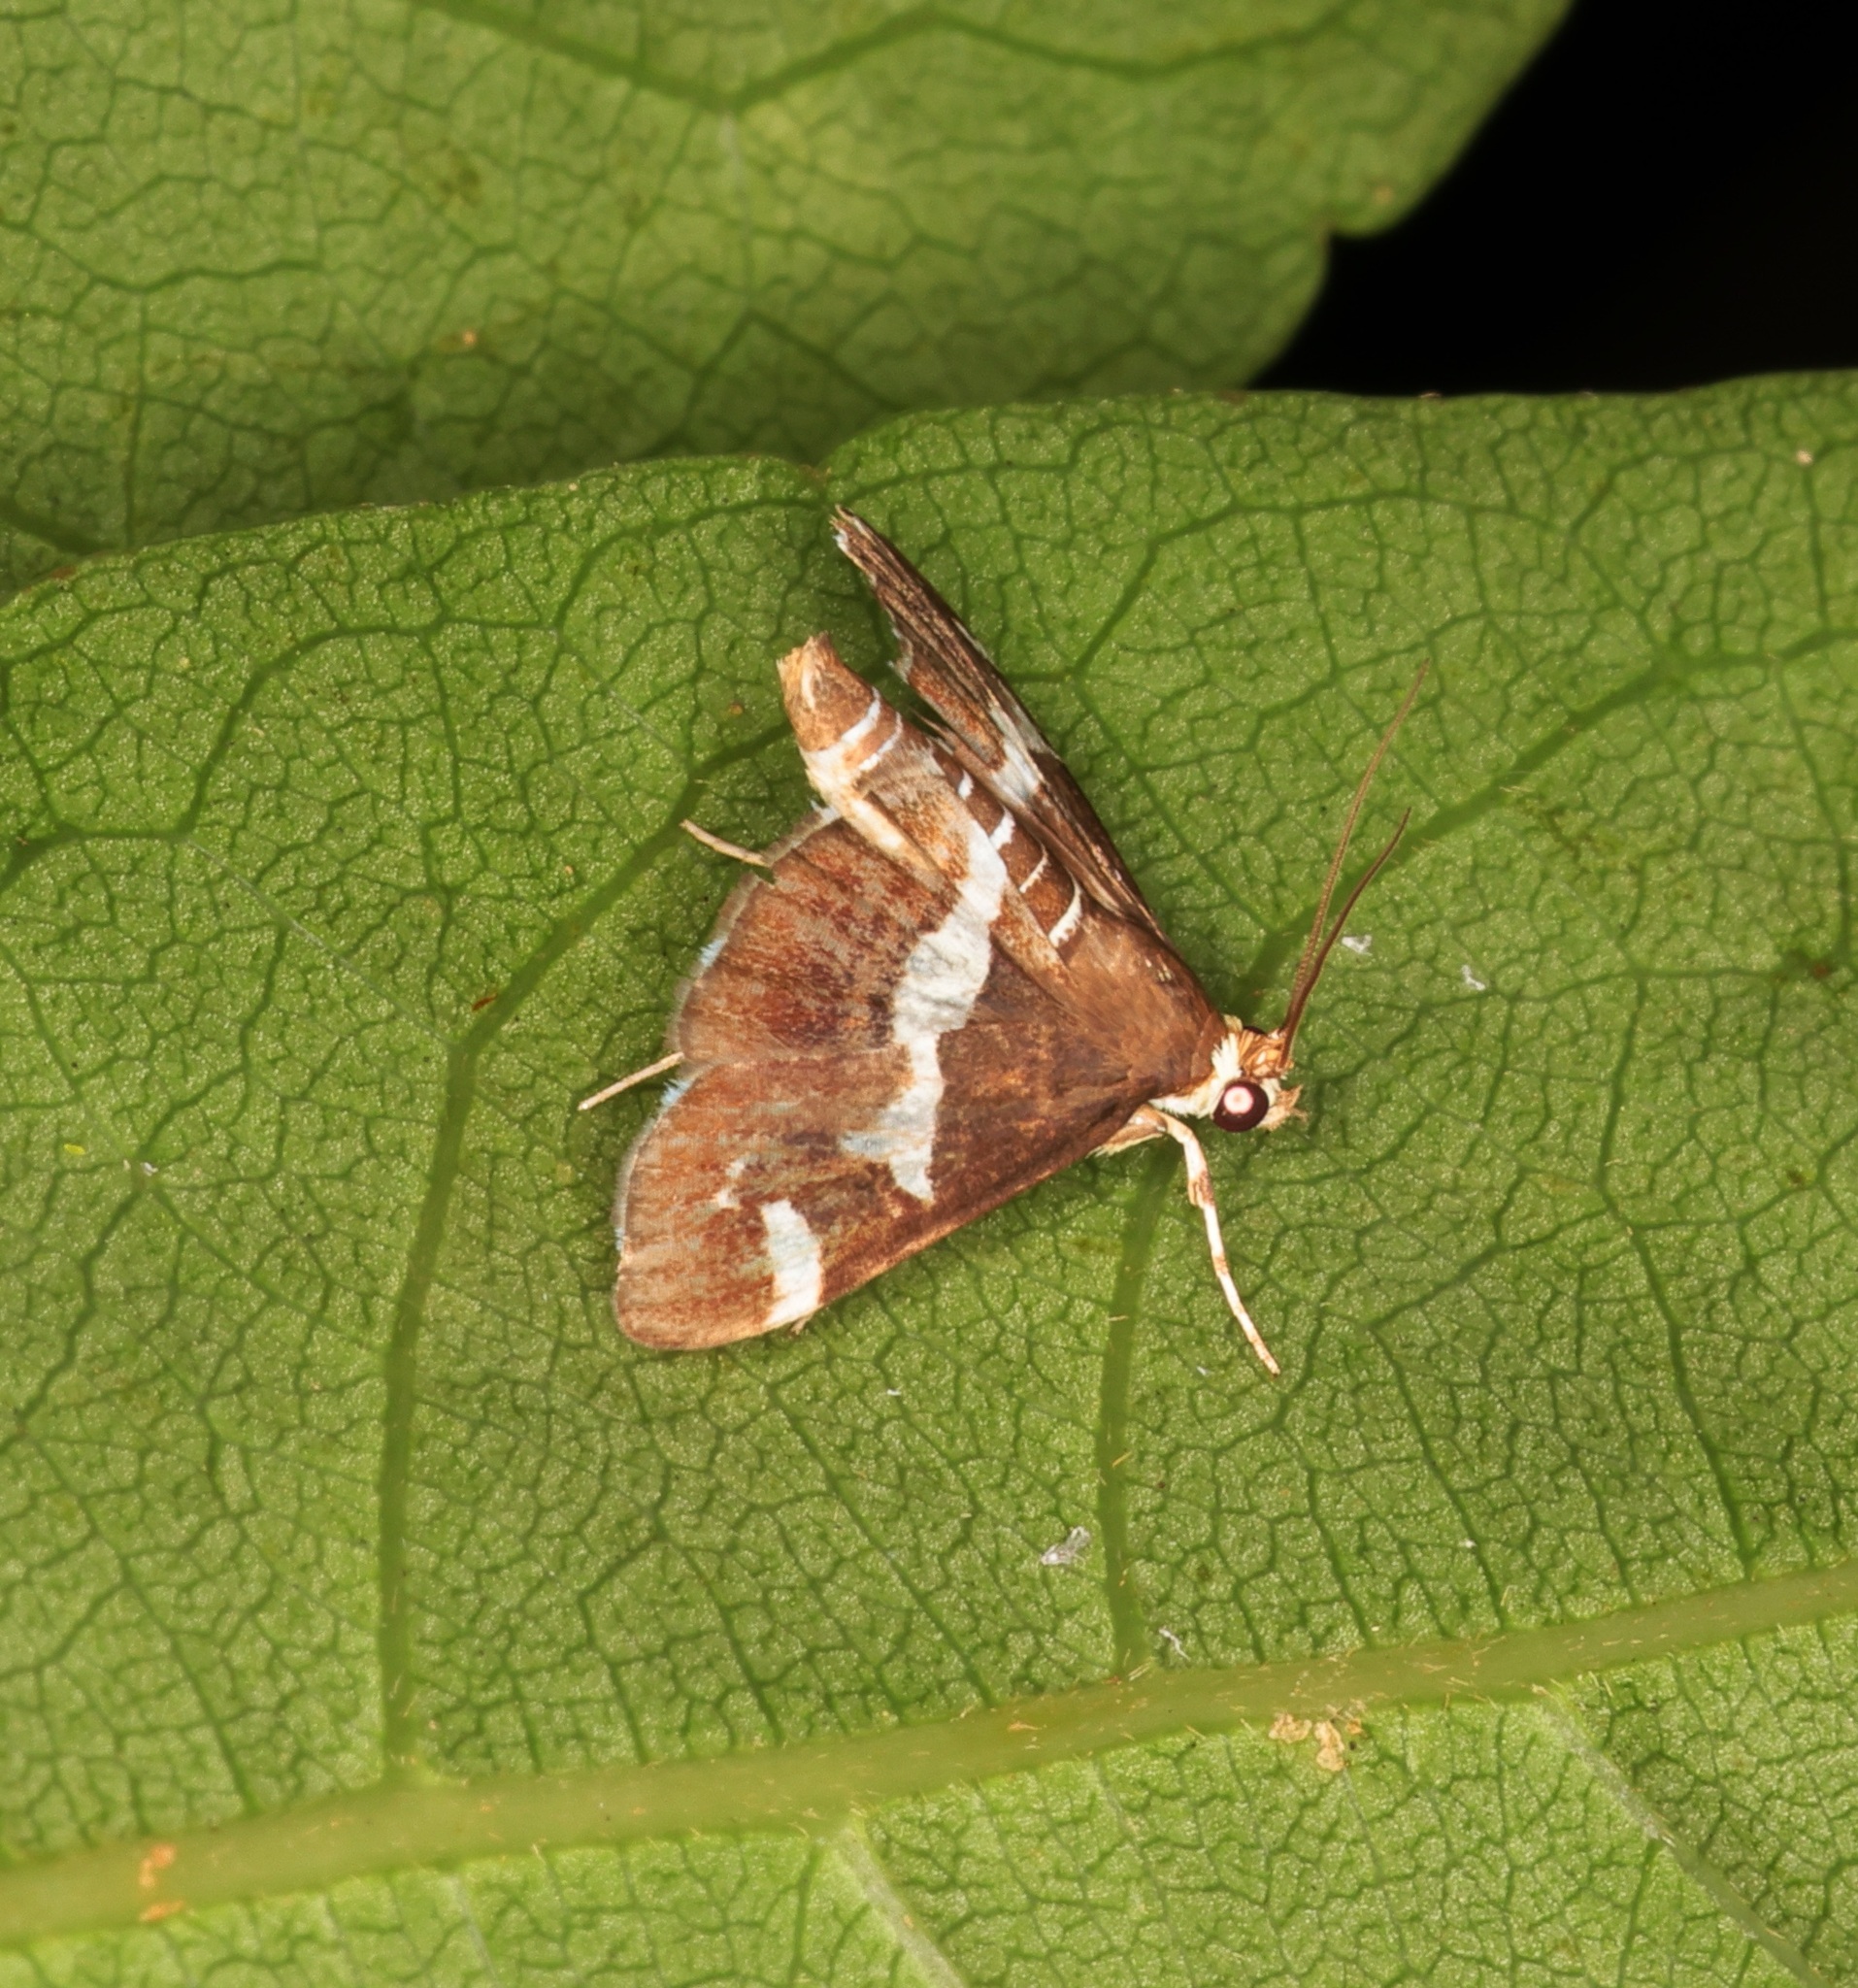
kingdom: Animalia
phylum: Arthropoda
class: Insecta
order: Lepidoptera
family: Crambidae
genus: Spoladea
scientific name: Spoladea recurvalis
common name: Beet webworm moth
